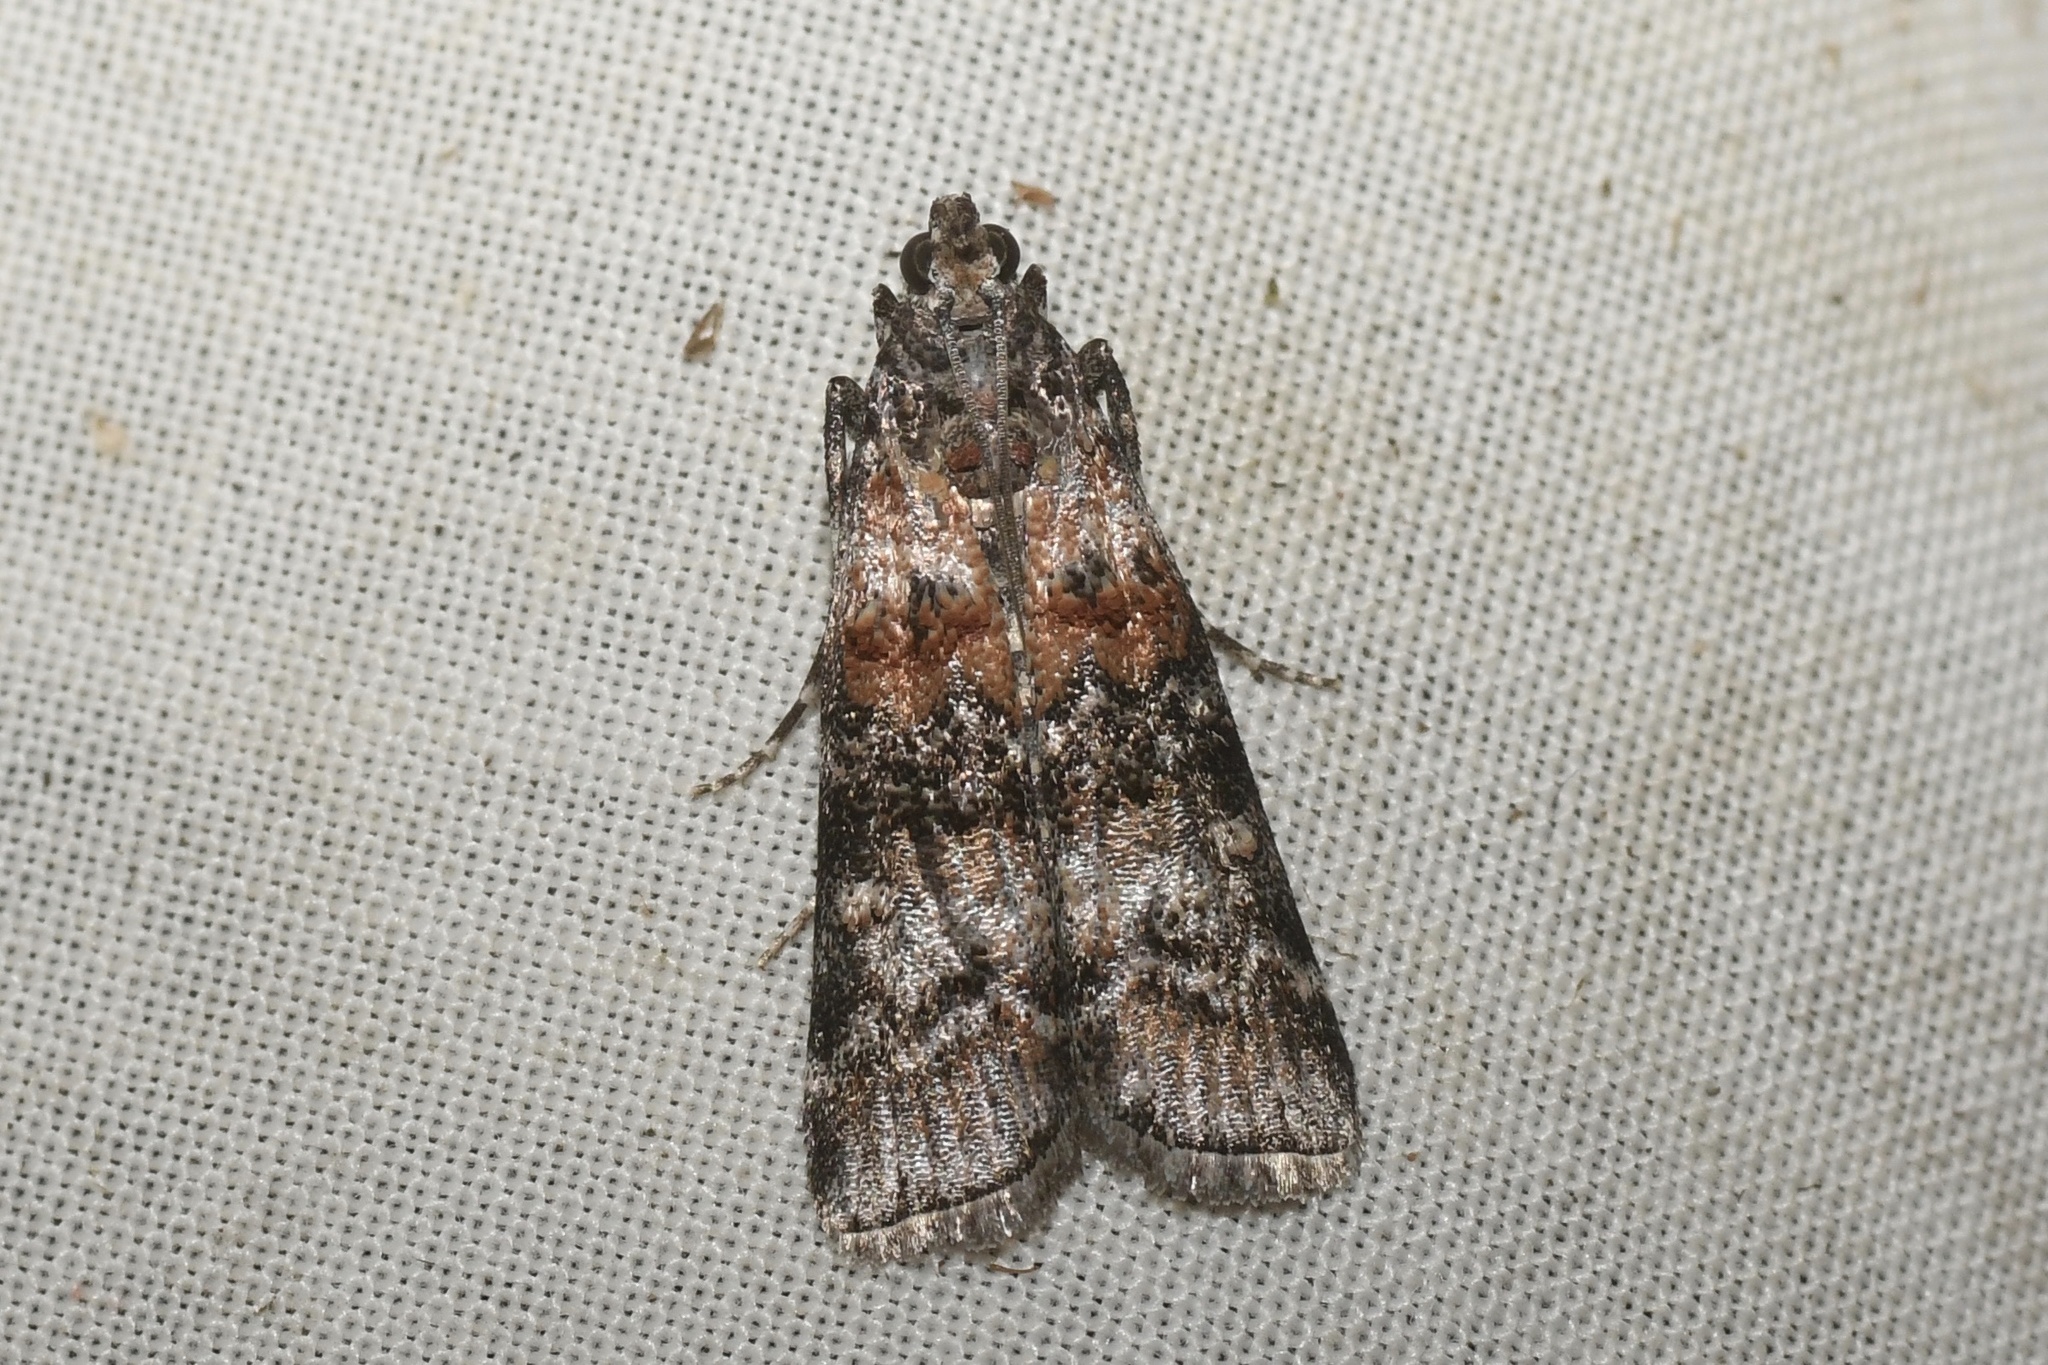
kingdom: Animalia
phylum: Arthropoda
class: Insecta
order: Lepidoptera
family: Pyralidae
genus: Dioryctria
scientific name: Dioryctria zimmermani
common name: Zimmerman pine moth
